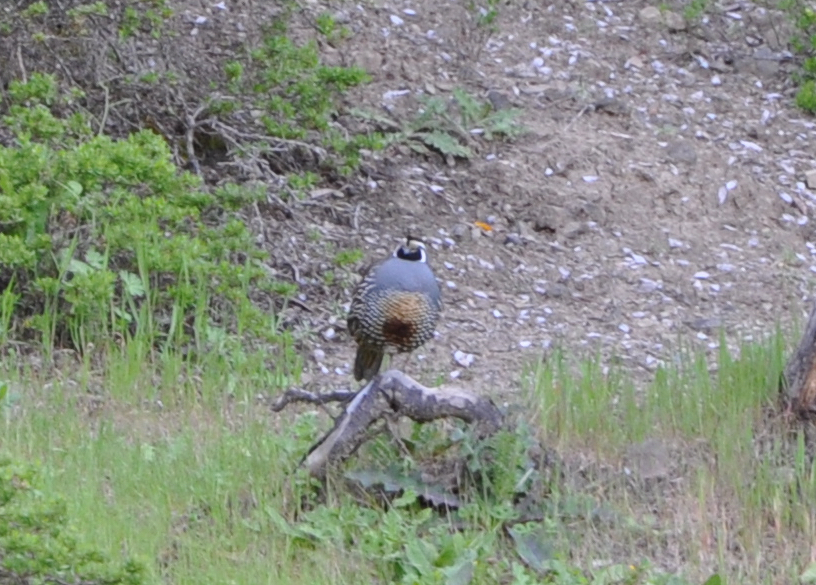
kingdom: Animalia
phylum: Chordata
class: Aves
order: Galliformes
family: Odontophoridae
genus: Callipepla
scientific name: Callipepla californica
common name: California quail
